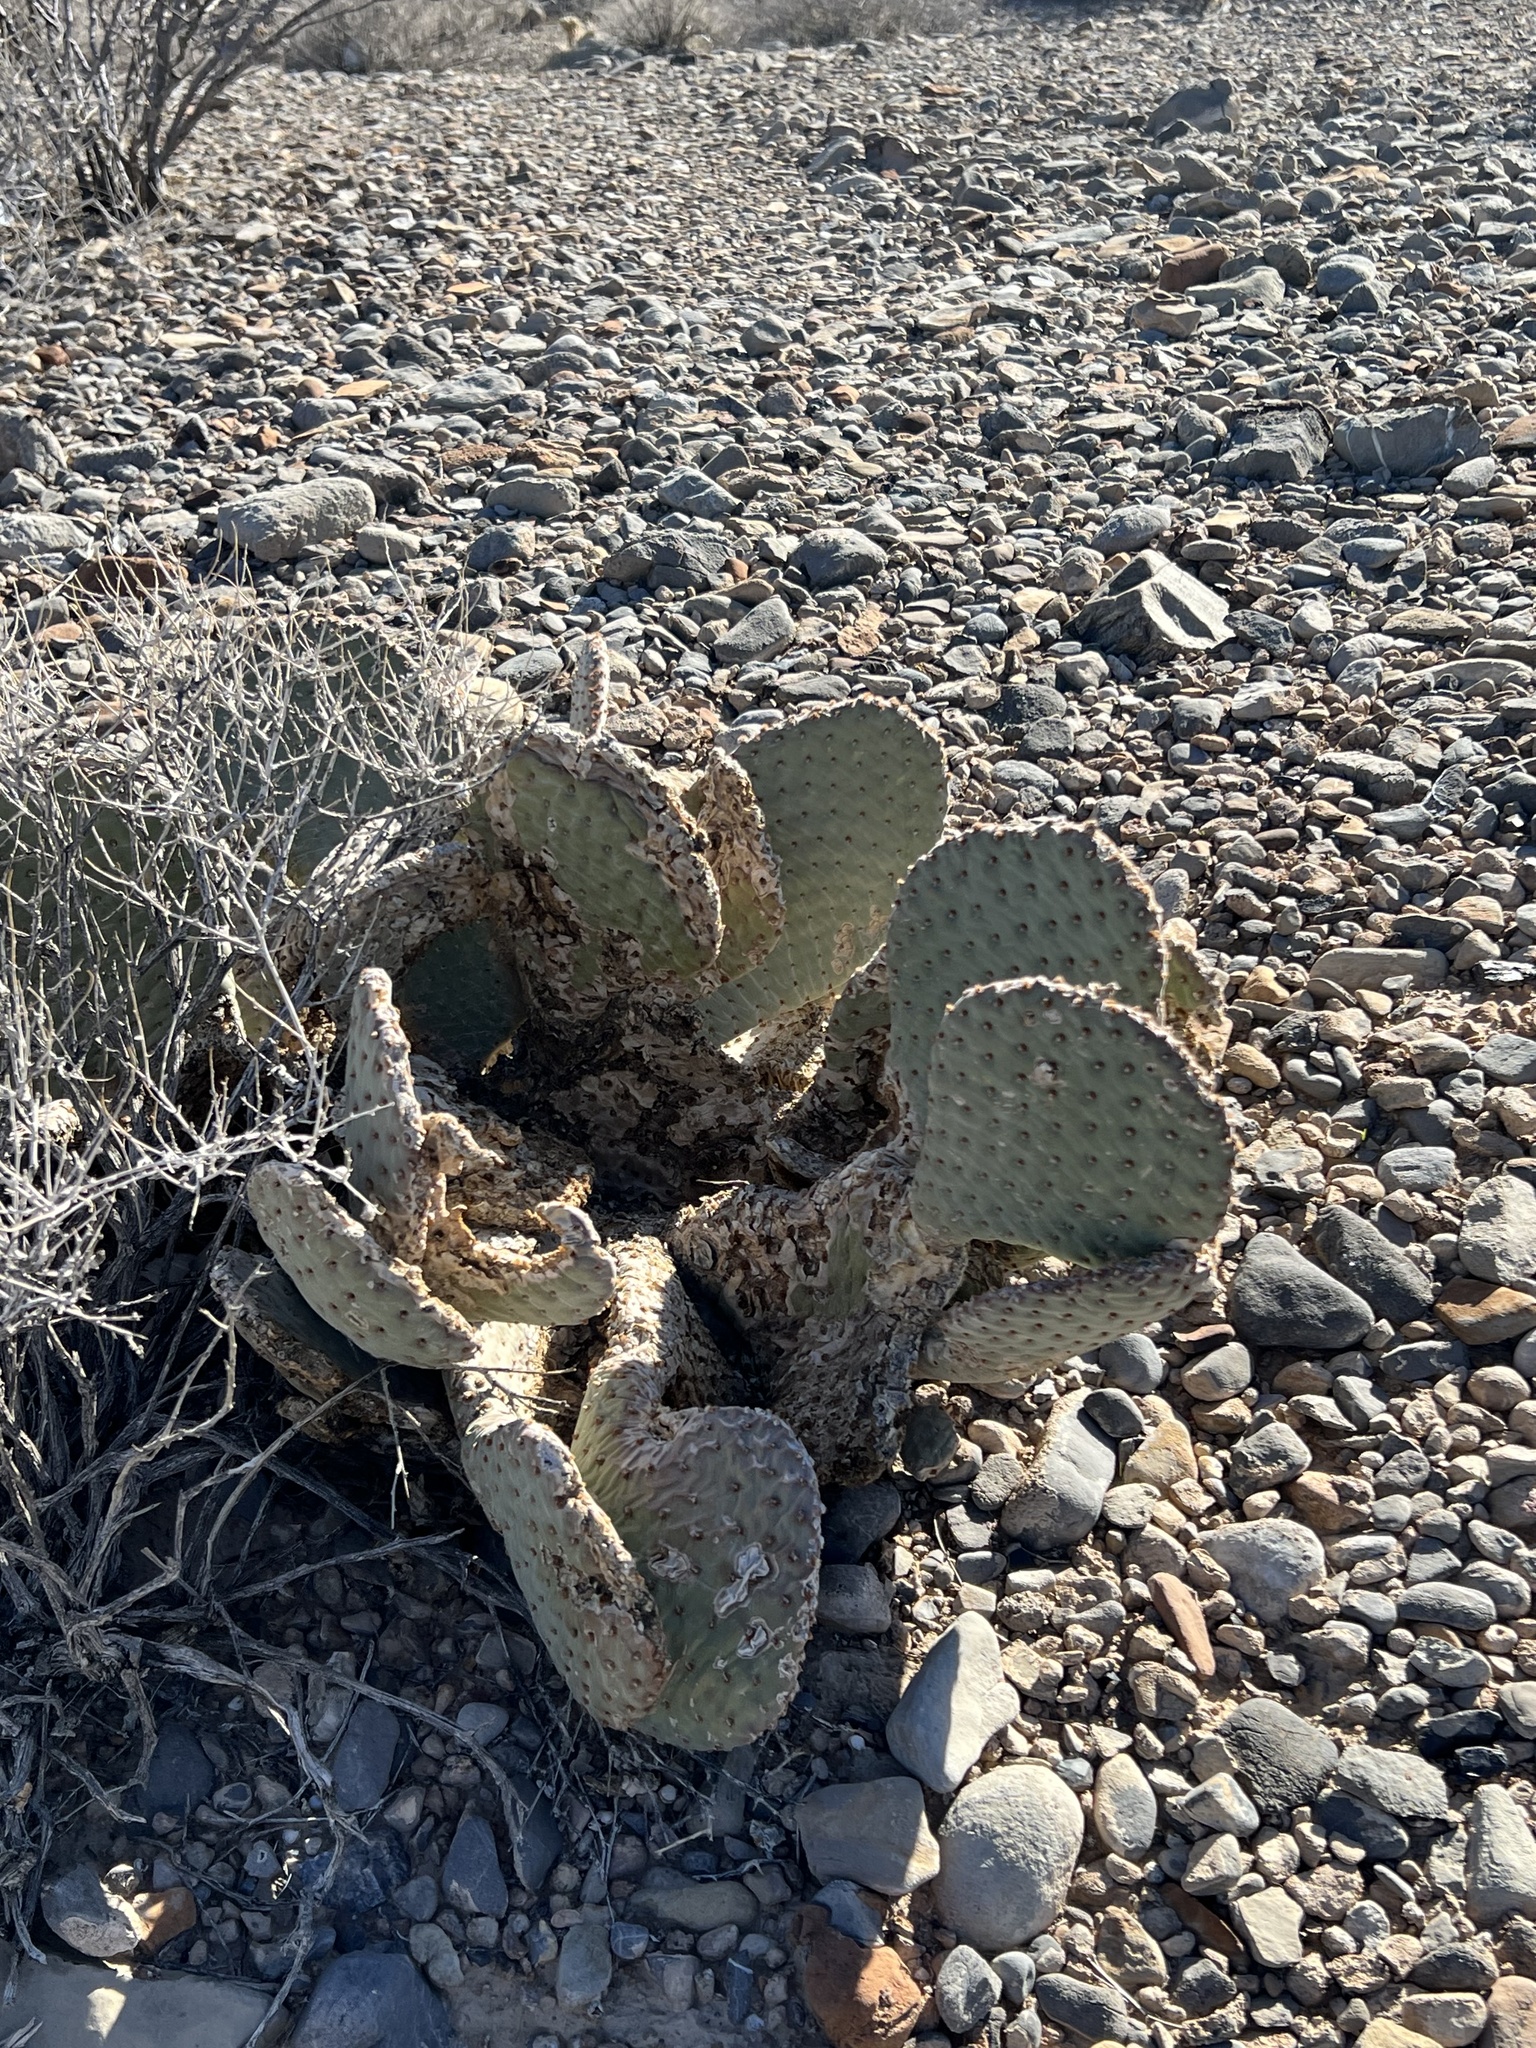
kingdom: Plantae
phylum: Tracheophyta
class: Magnoliopsida
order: Caryophyllales
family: Cactaceae
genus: Opuntia
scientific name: Opuntia basilaris
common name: Beavertail prickly-pear
